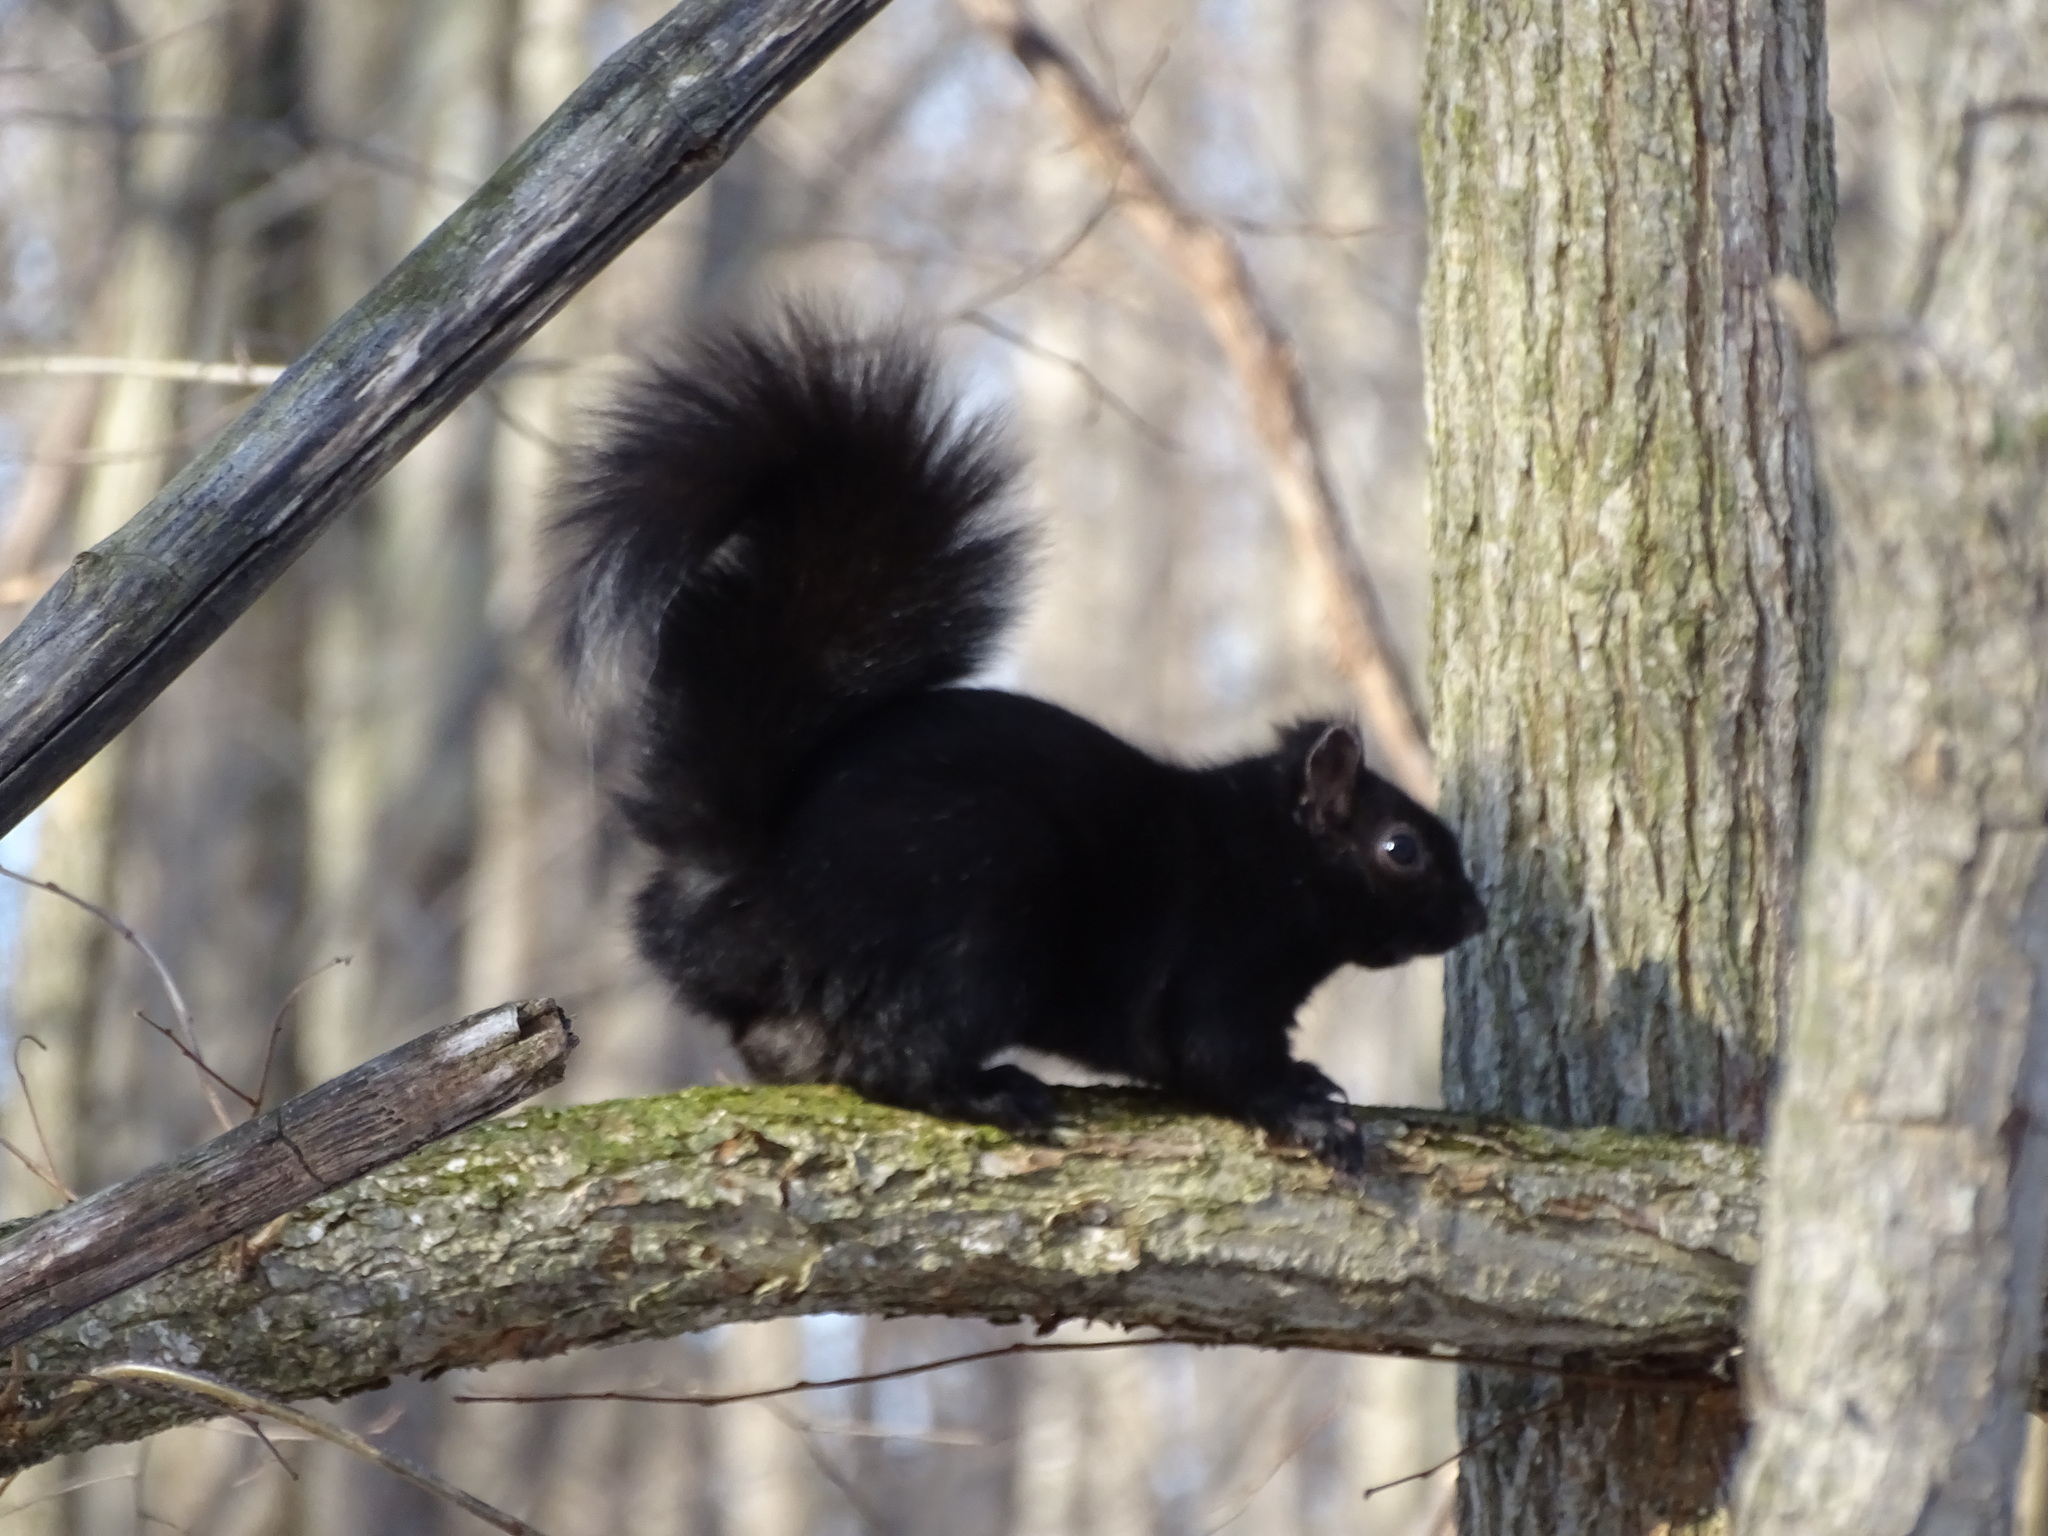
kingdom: Animalia
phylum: Chordata
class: Mammalia
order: Rodentia
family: Sciuridae
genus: Sciurus
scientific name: Sciurus carolinensis
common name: Eastern gray squirrel
